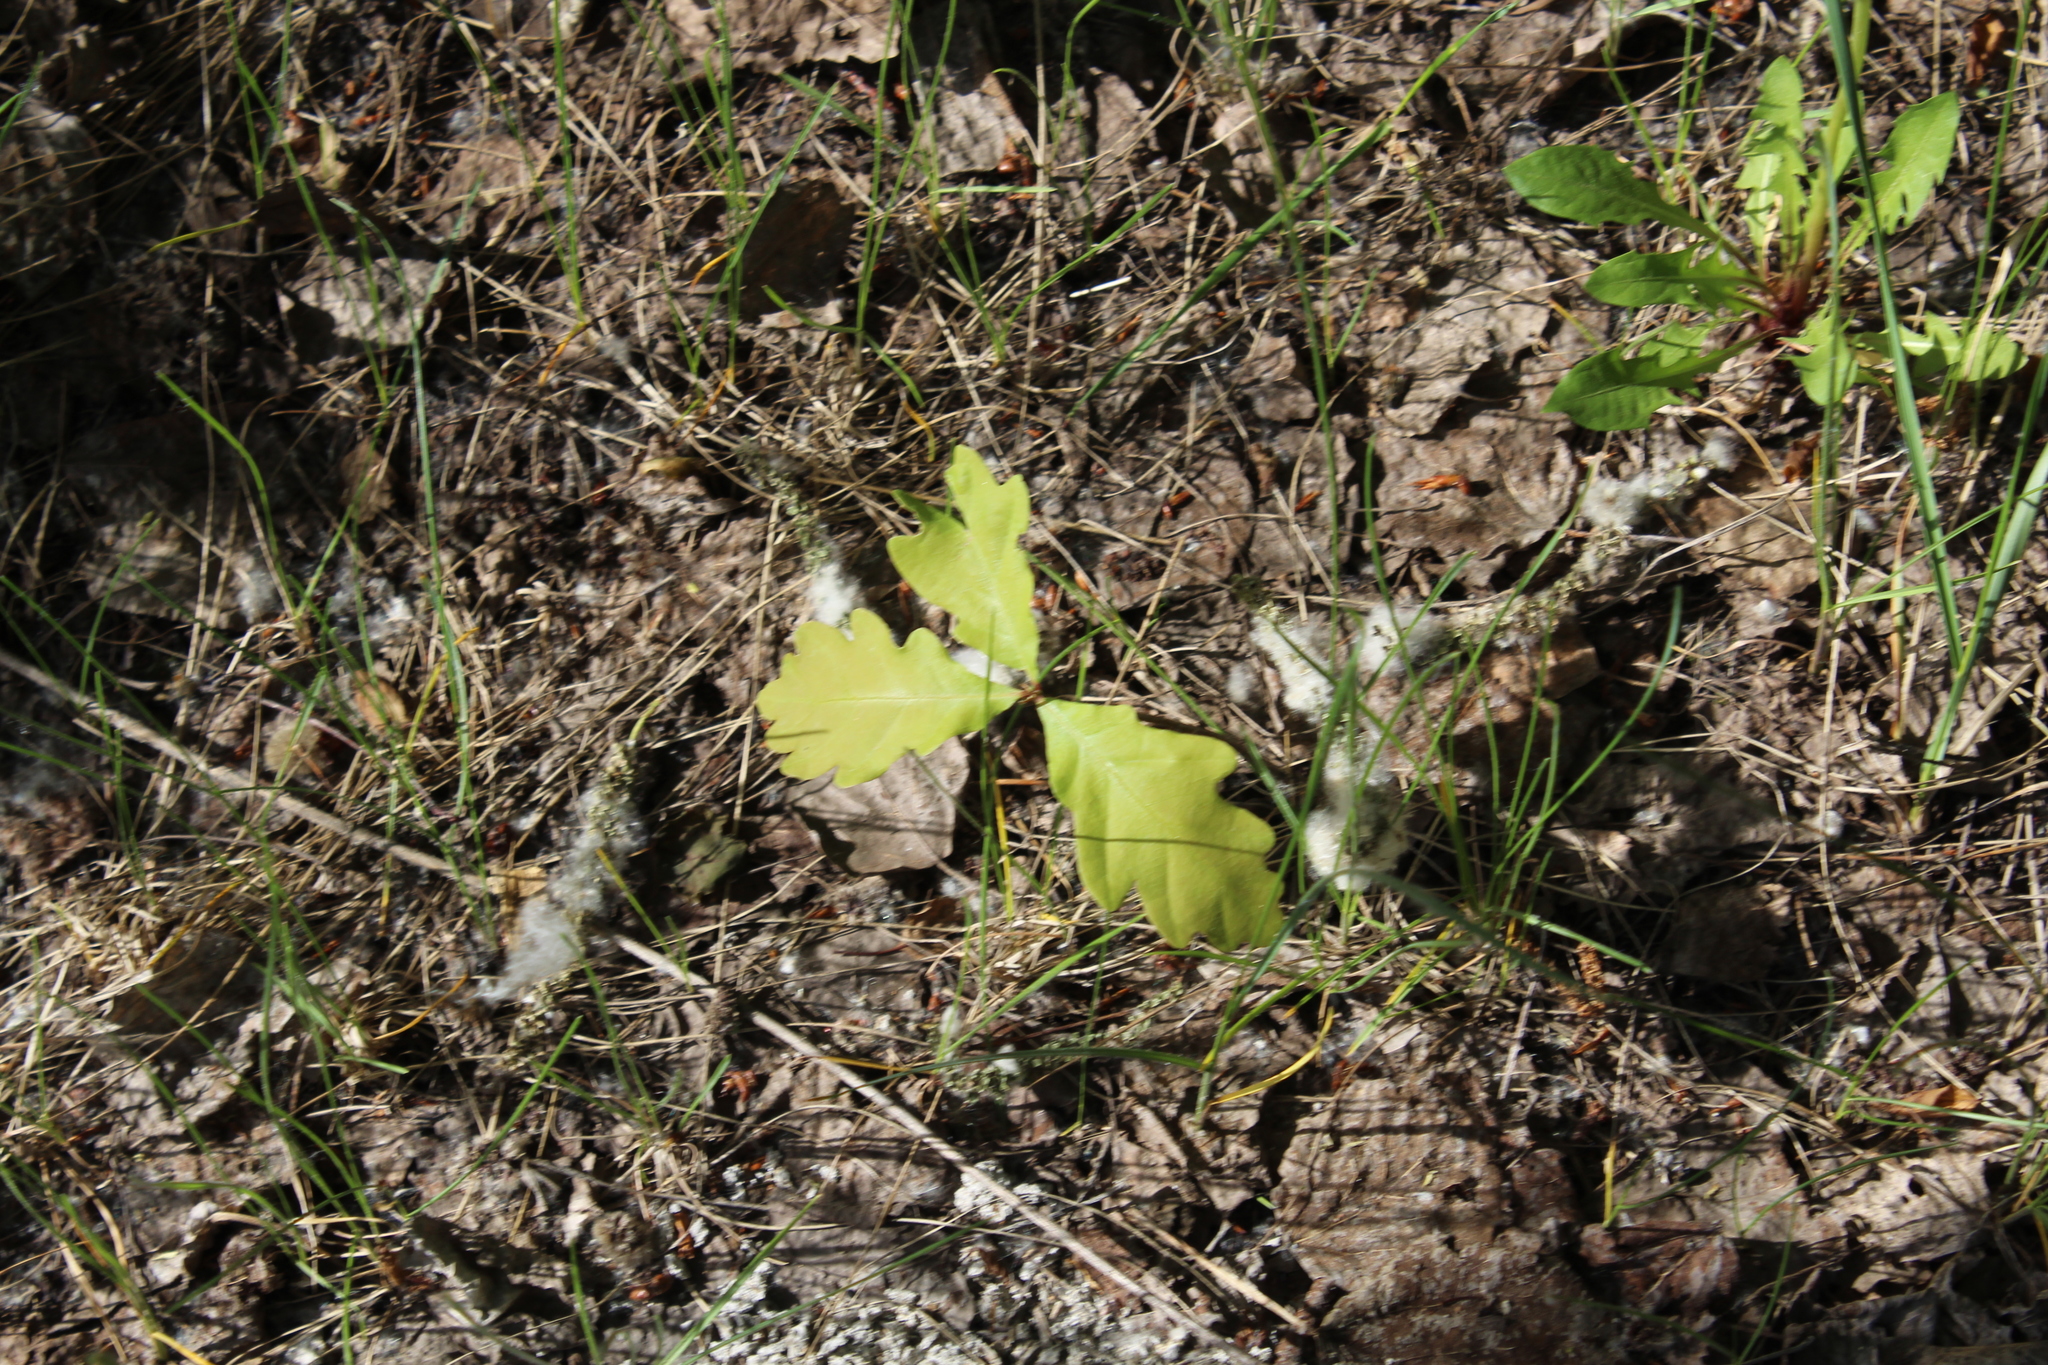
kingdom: Plantae
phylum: Tracheophyta
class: Magnoliopsida
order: Fagales
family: Fagaceae
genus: Quercus
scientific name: Quercus robur
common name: Pedunculate oak
